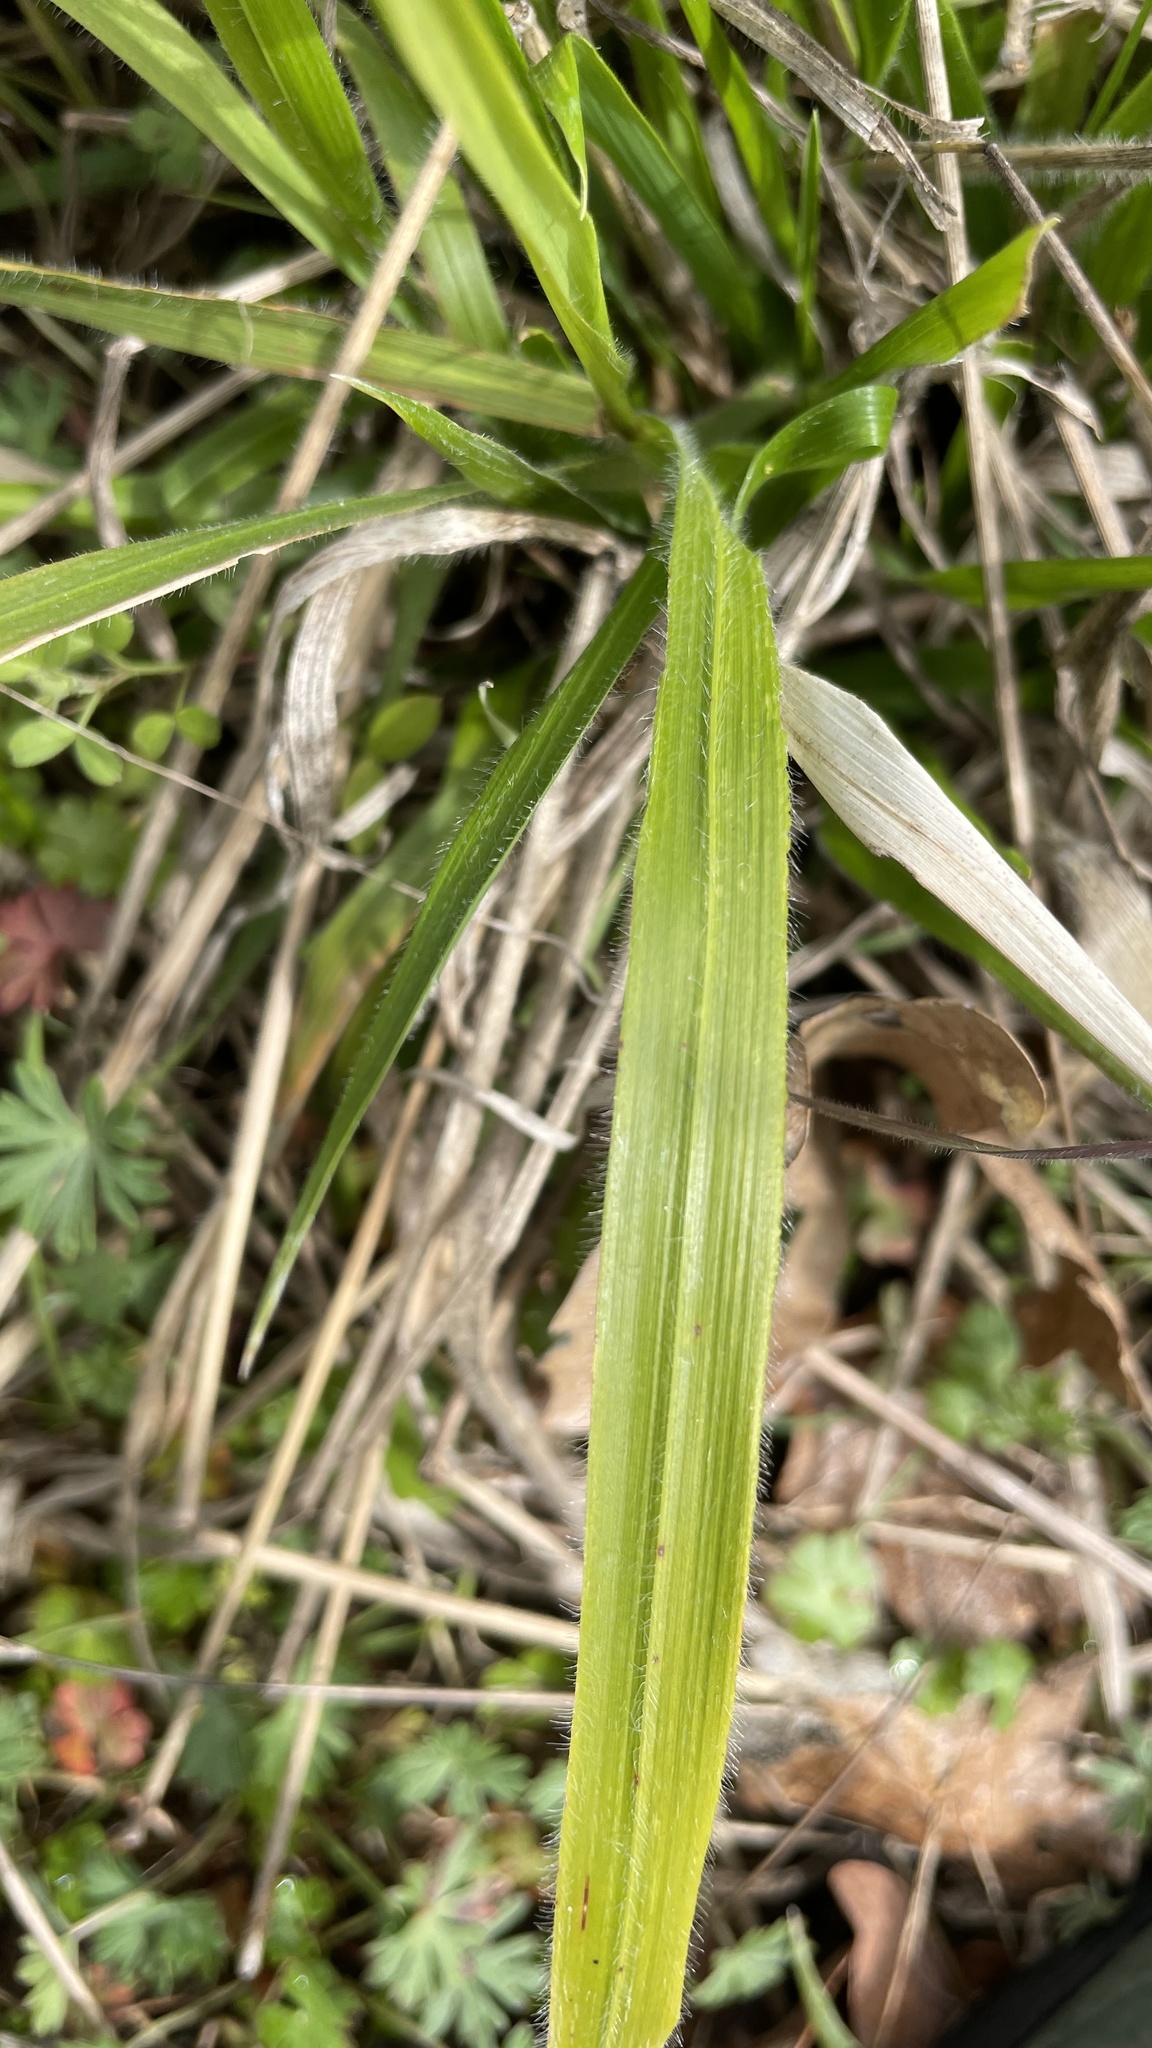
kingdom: Plantae
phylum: Tracheophyta
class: Liliopsida
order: Poales
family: Poaceae
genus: Brachypodium
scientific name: Brachypodium sylvaticum
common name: False-brome
